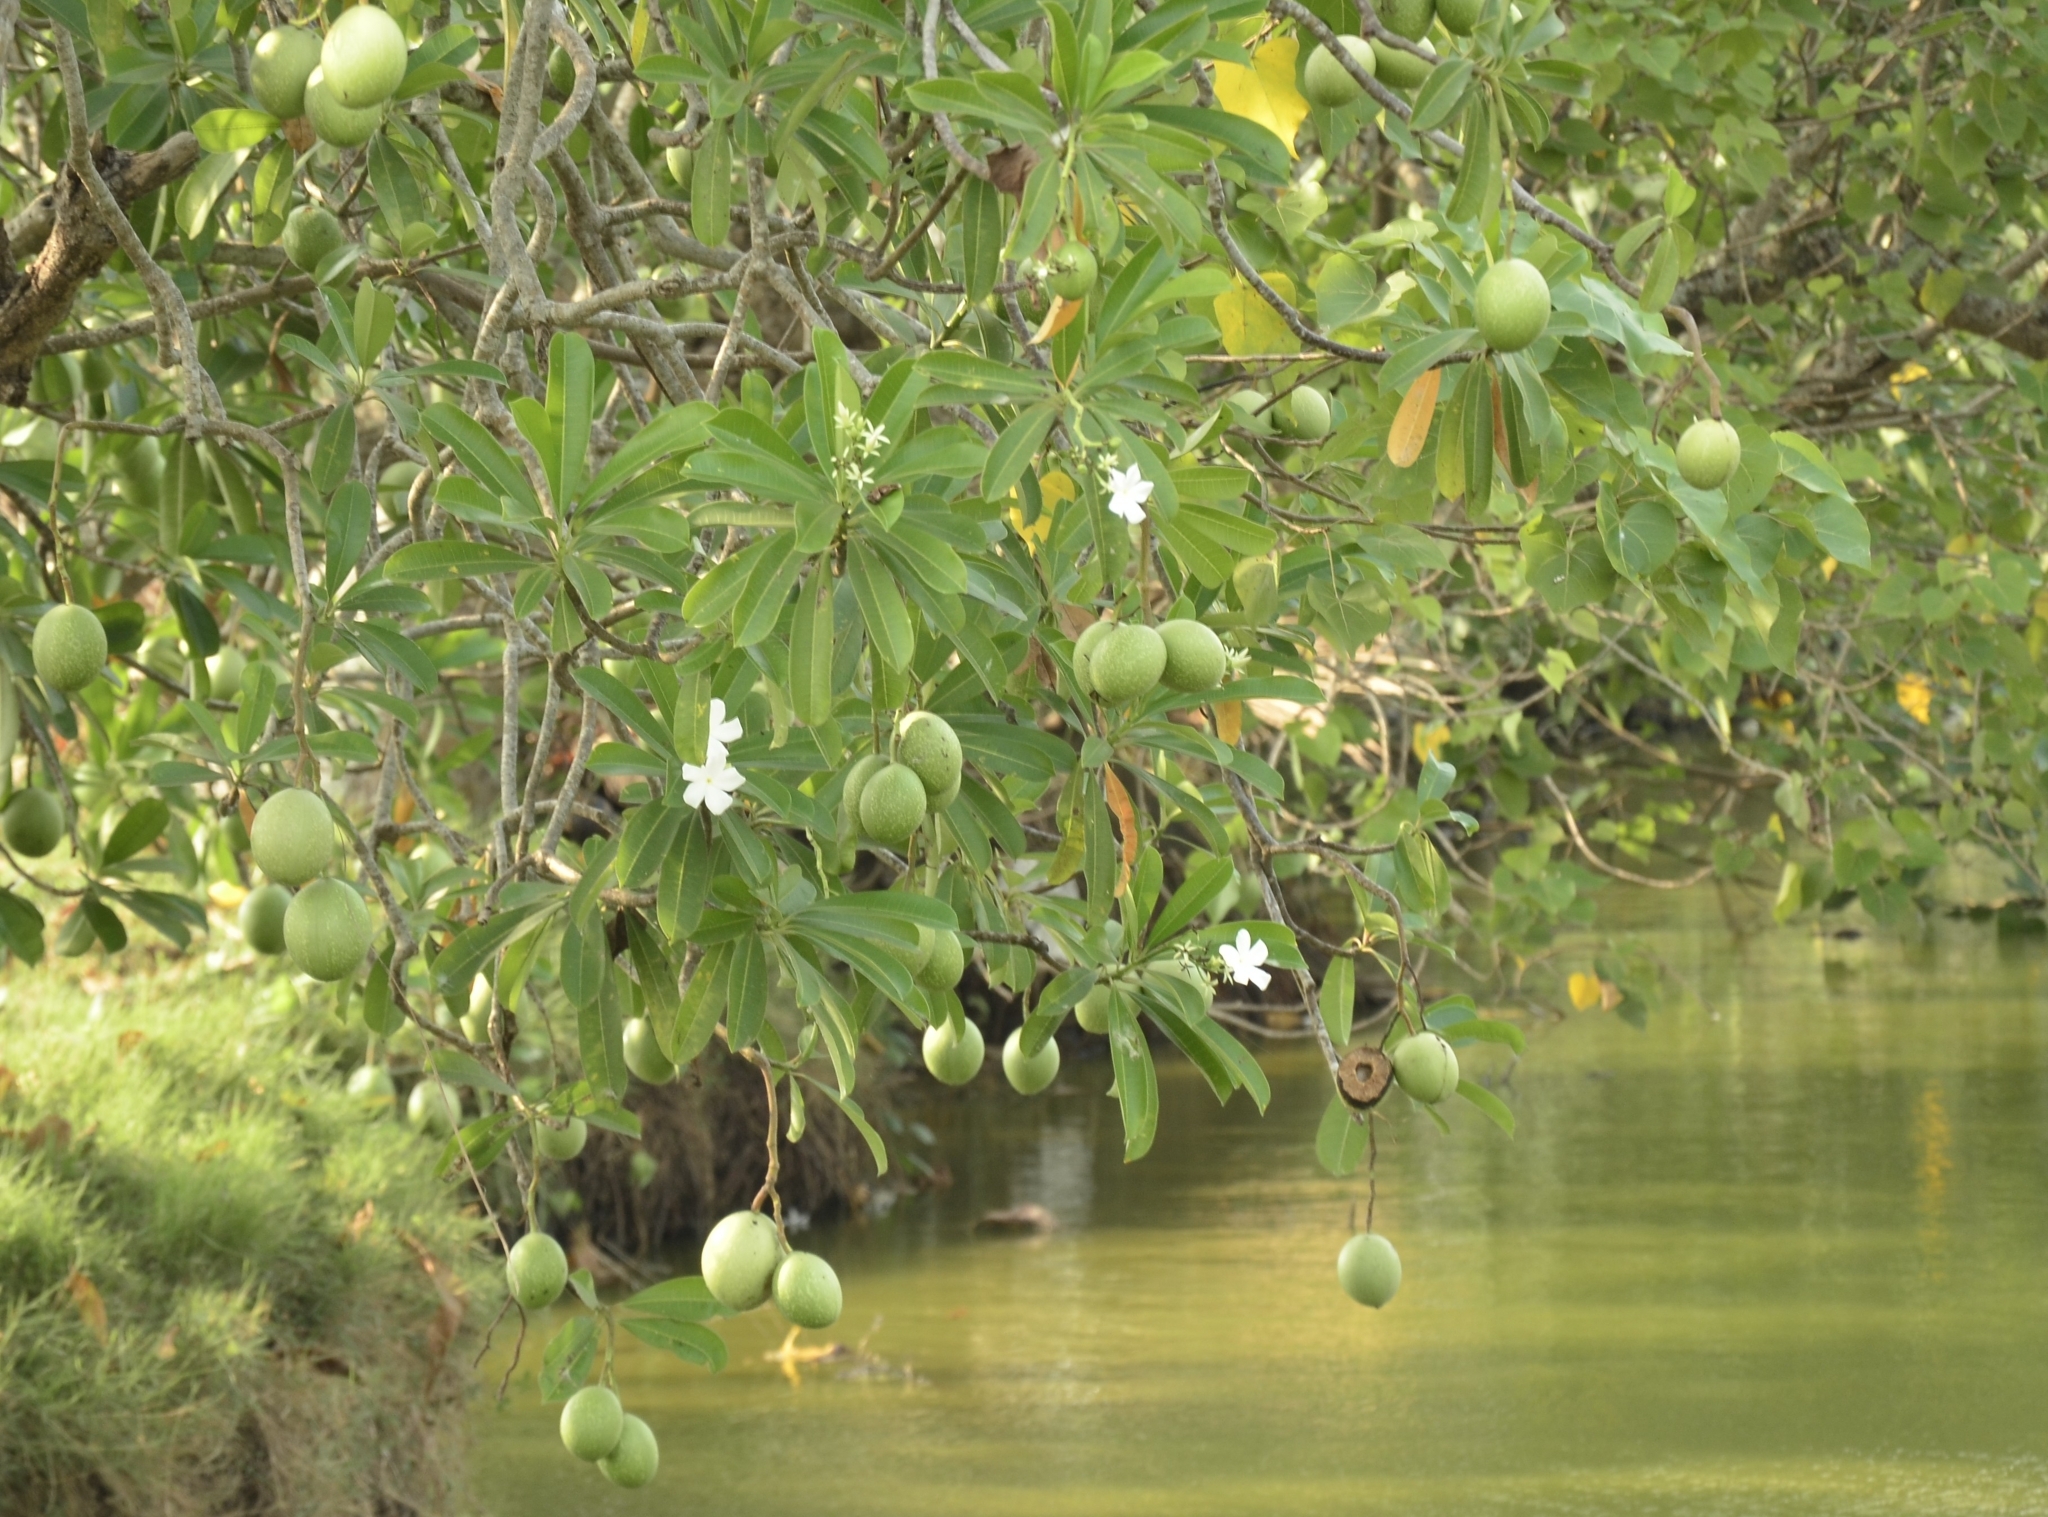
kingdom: Plantae
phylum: Tracheophyta
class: Magnoliopsida
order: Gentianales
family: Apocynaceae
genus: Cerbera
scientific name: Cerbera odollam
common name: Pong-pong
